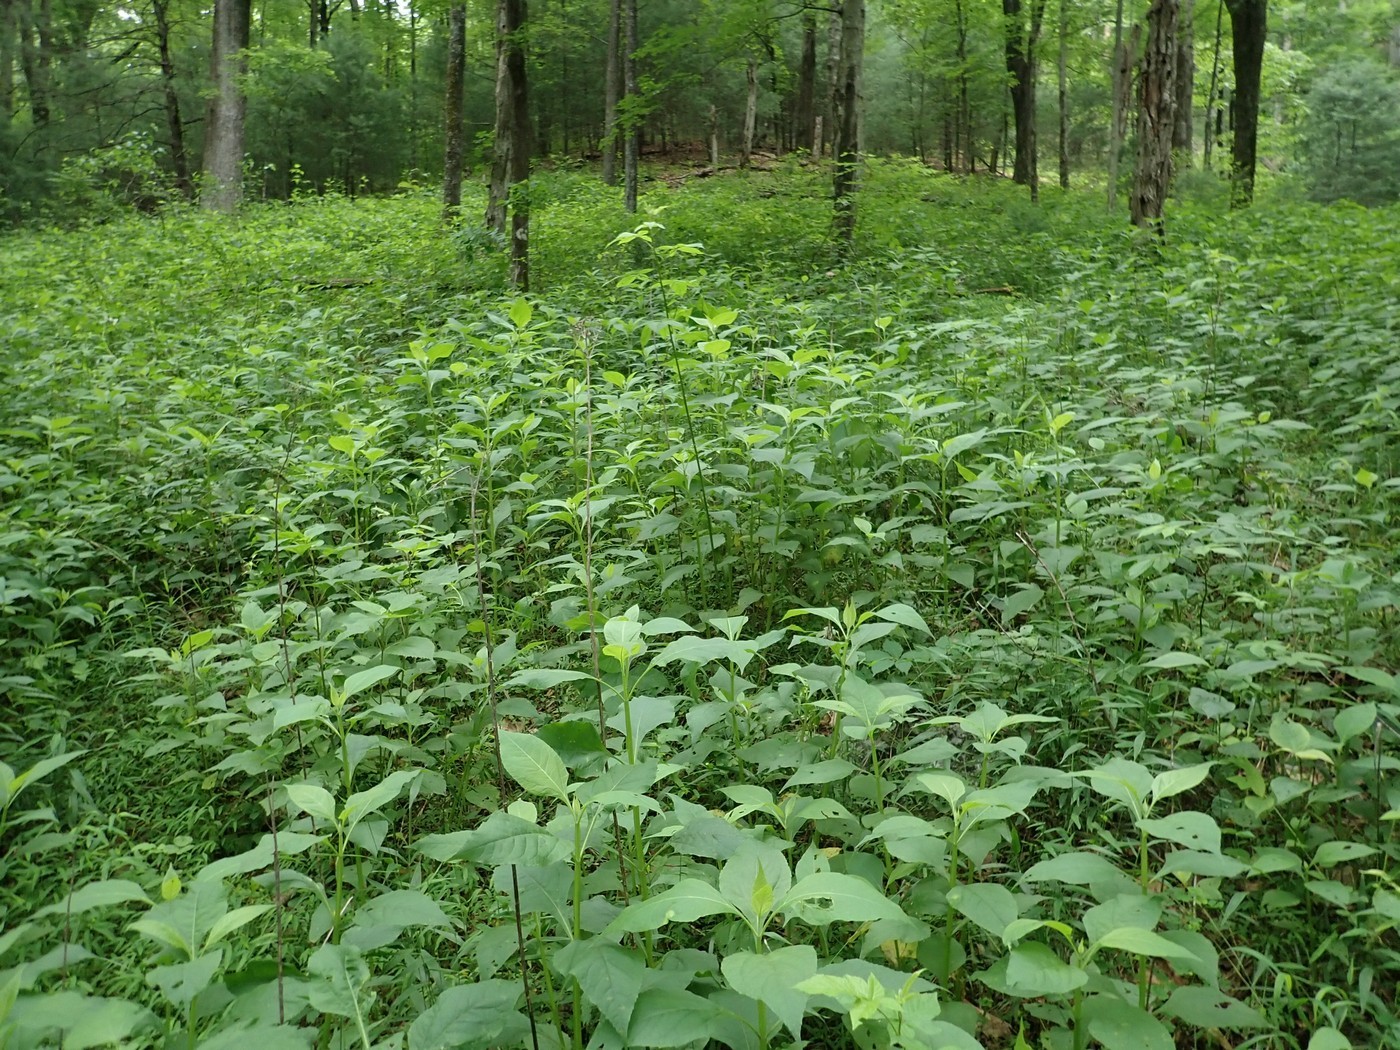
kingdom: Plantae
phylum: Tracheophyta
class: Magnoliopsida
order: Asterales
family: Asteraceae
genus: Verbesina
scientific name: Verbesina occidentalis
